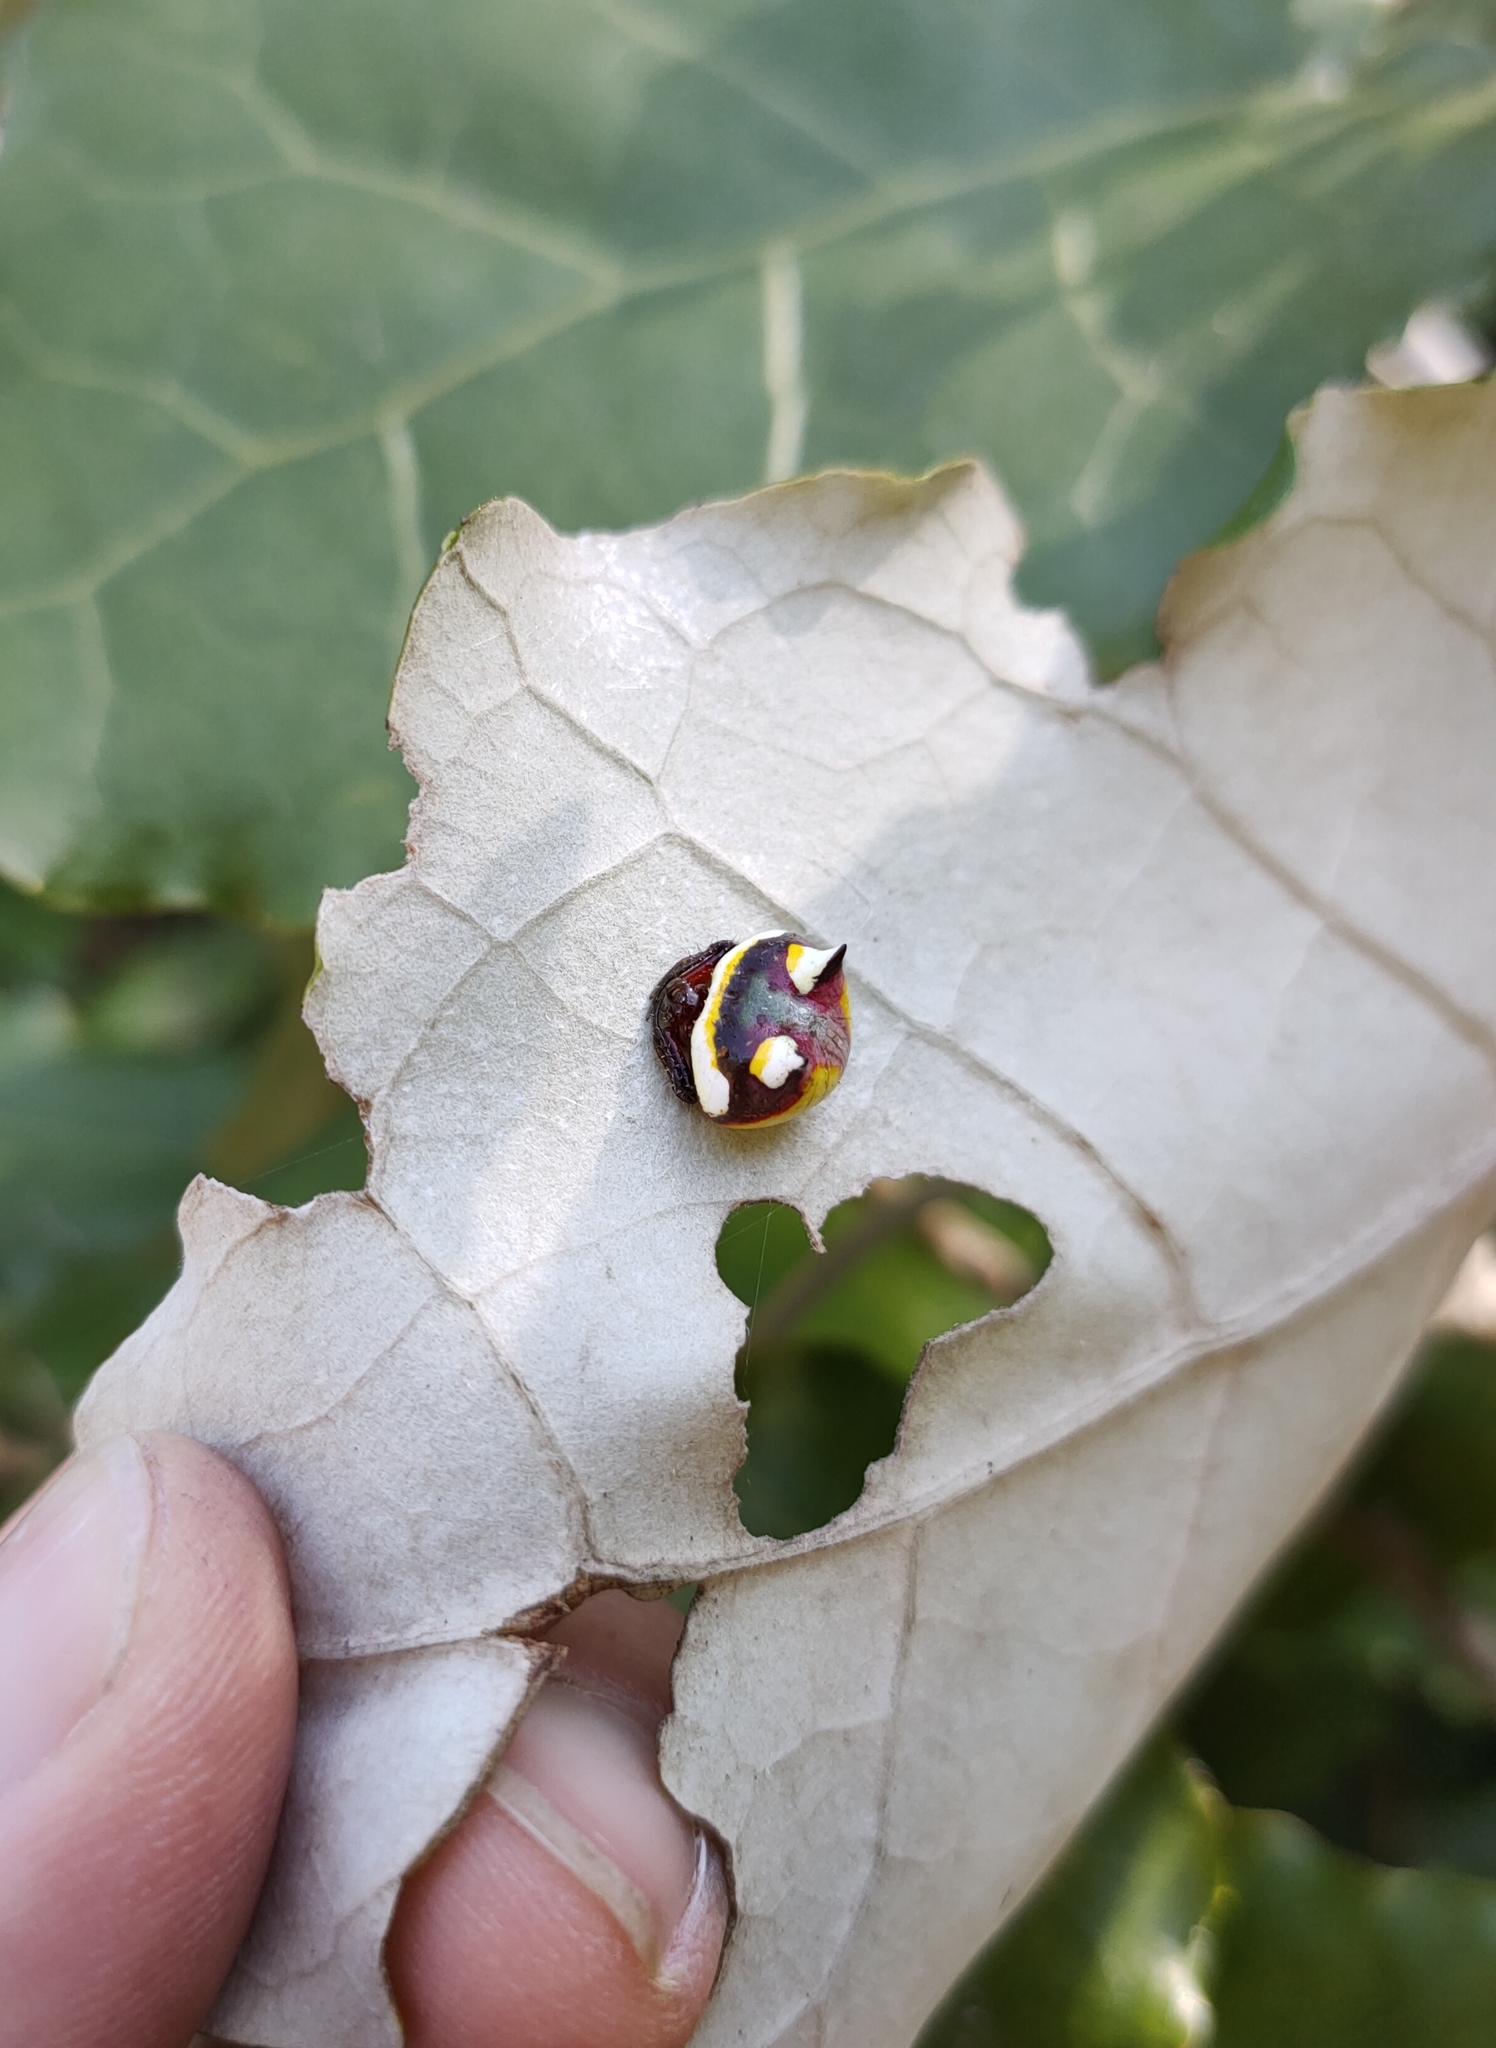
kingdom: Animalia
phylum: Arthropoda
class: Arachnida
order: Araneae
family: Araneidae
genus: Poecilopachys
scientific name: Poecilopachys australasia
